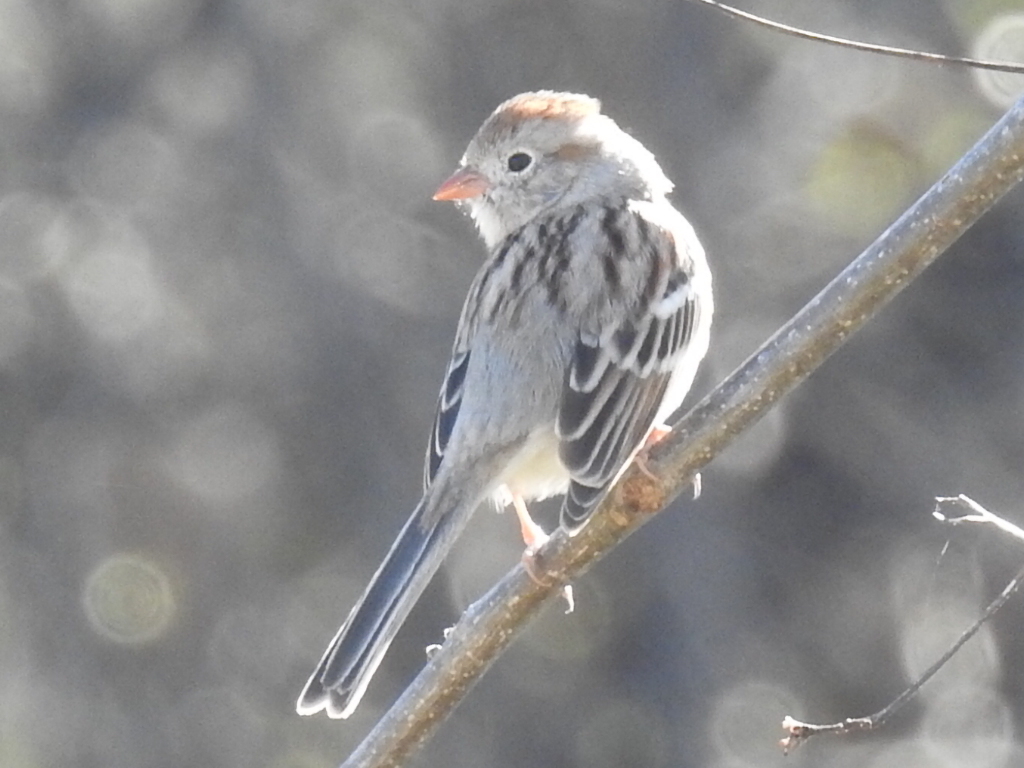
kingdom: Animalia
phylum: Chordata
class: Aves
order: Passeriformes
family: Passerellidae
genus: Spizella
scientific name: Spizella pusilla
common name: Field sparrow
